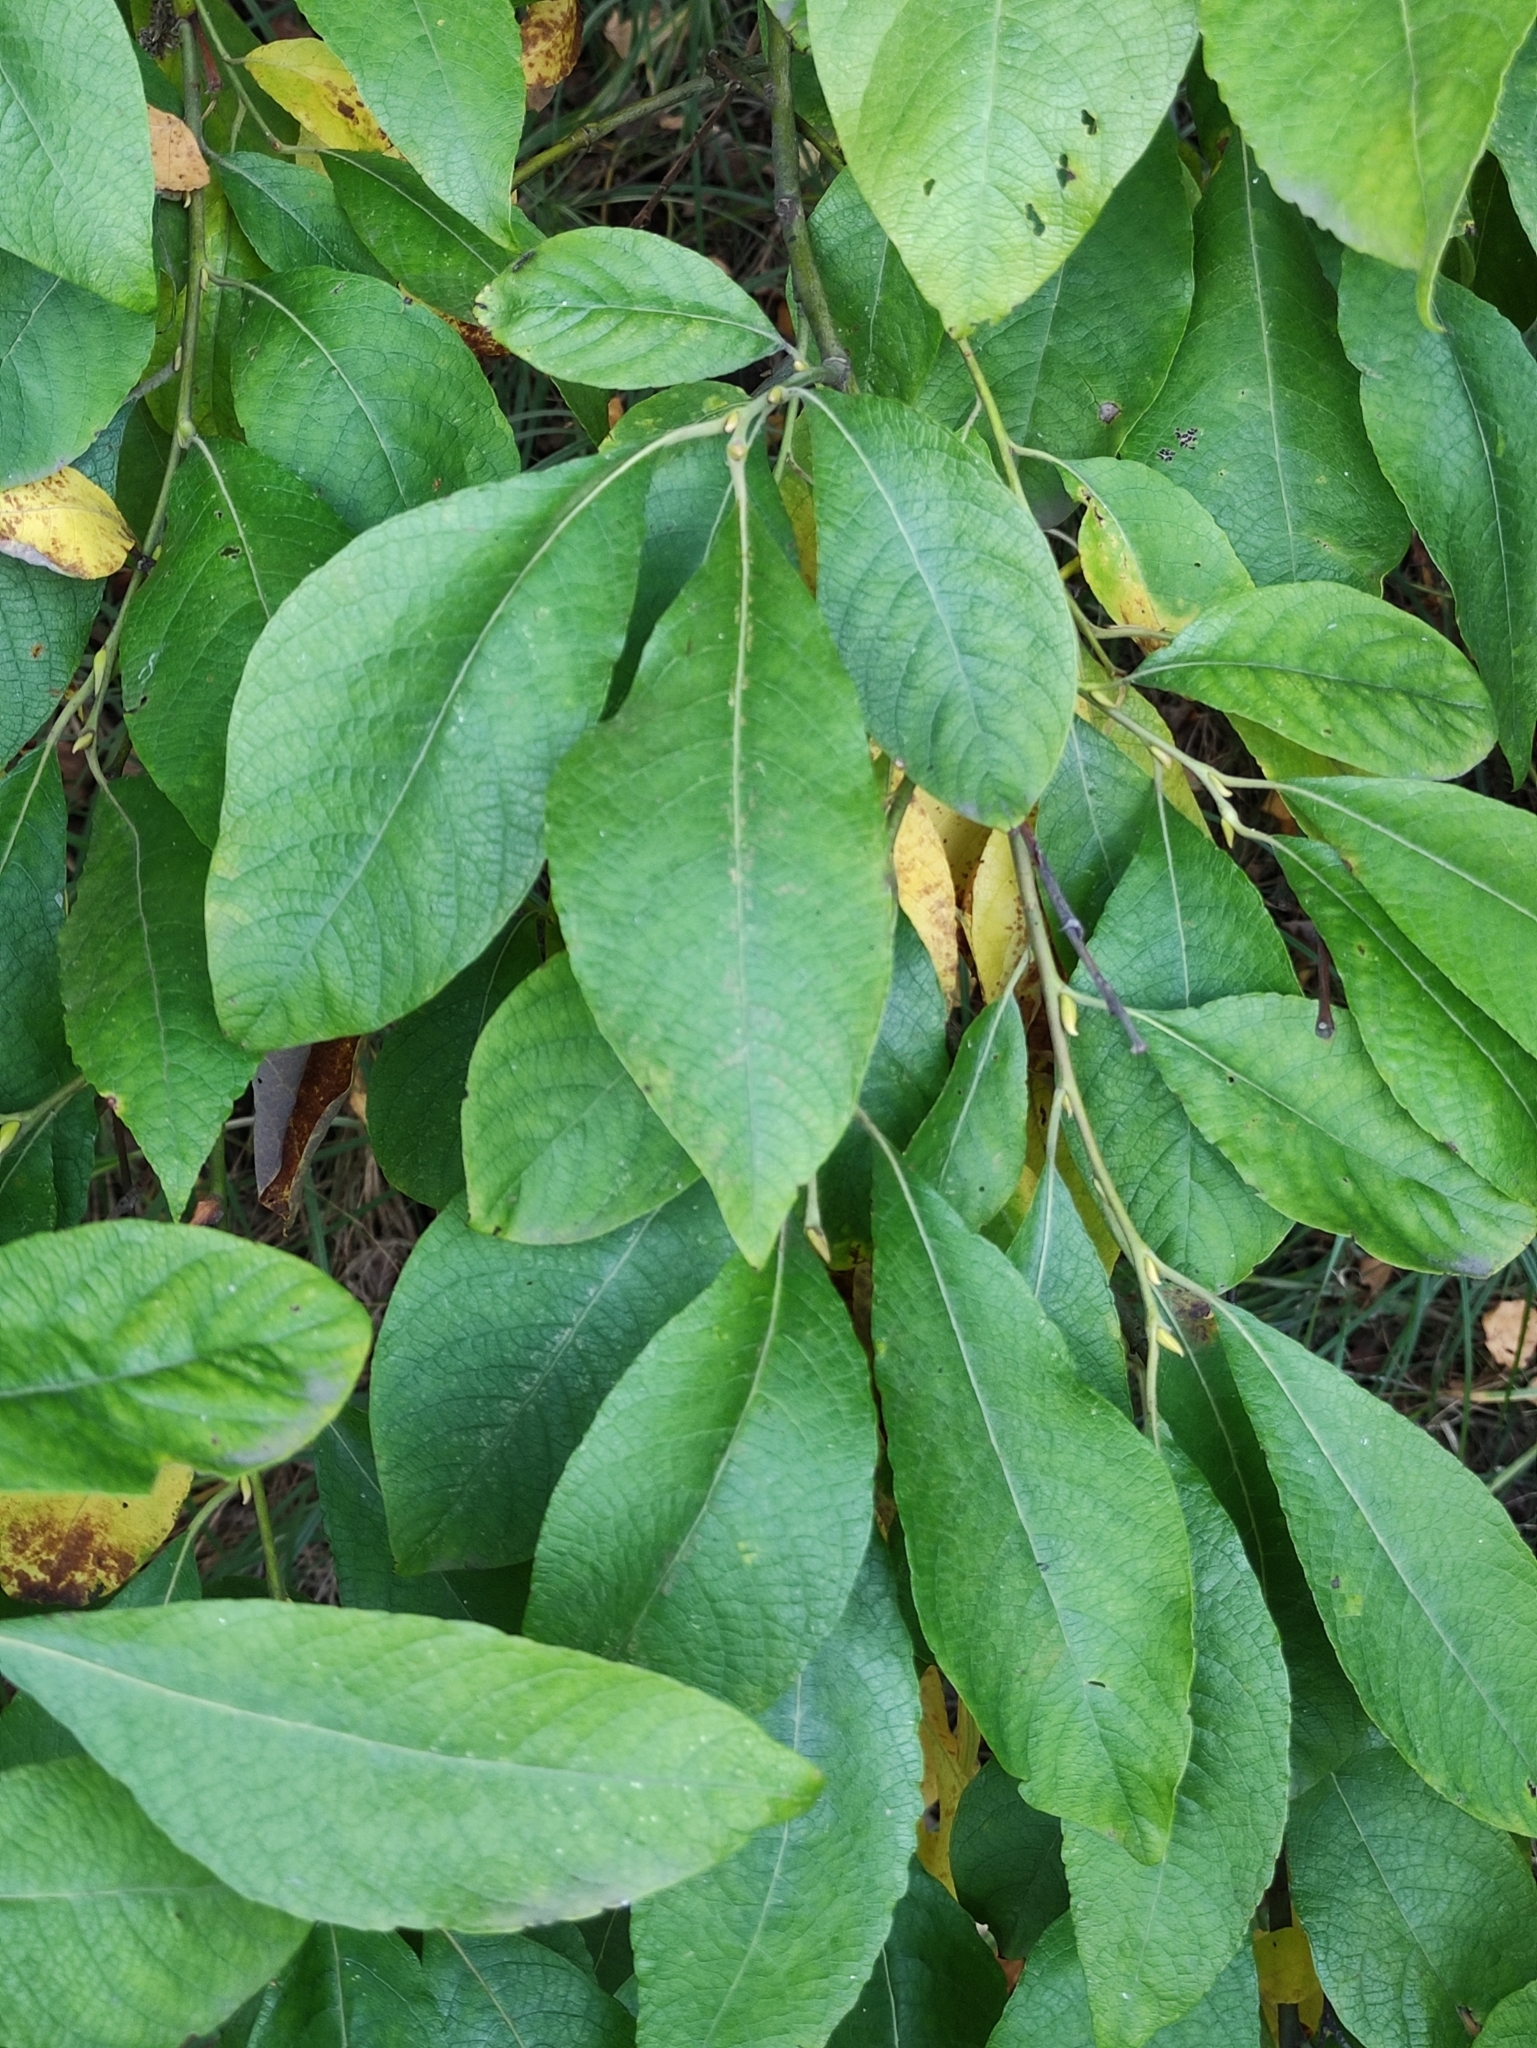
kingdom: Plantae
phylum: Tracheophyta
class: Magnoliopsida
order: Malpighiales
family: Salicaceae
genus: Salix
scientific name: Salix caprea
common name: Goat willow
